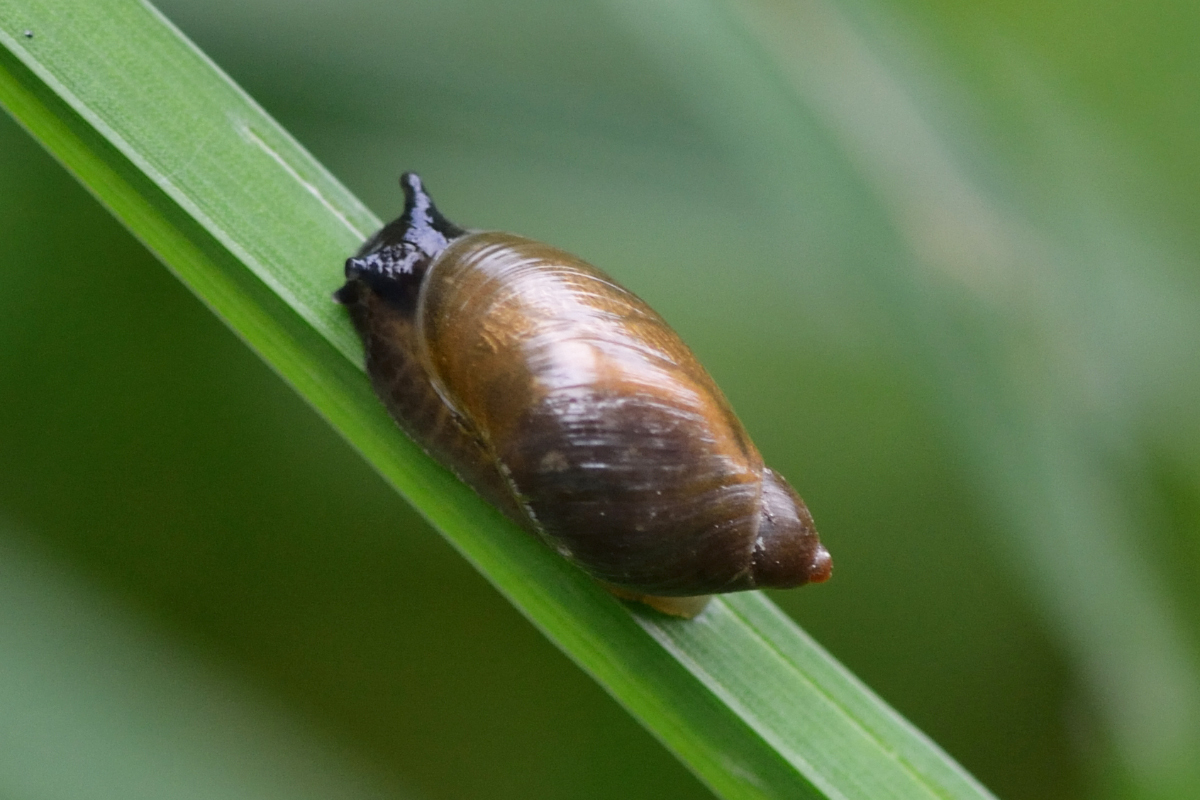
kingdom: Animalia
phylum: Mollusca
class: Gastropoda
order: Stylommatophora
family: Succineidae
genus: Succinea
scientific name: Succinea putris
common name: European ambersnail
